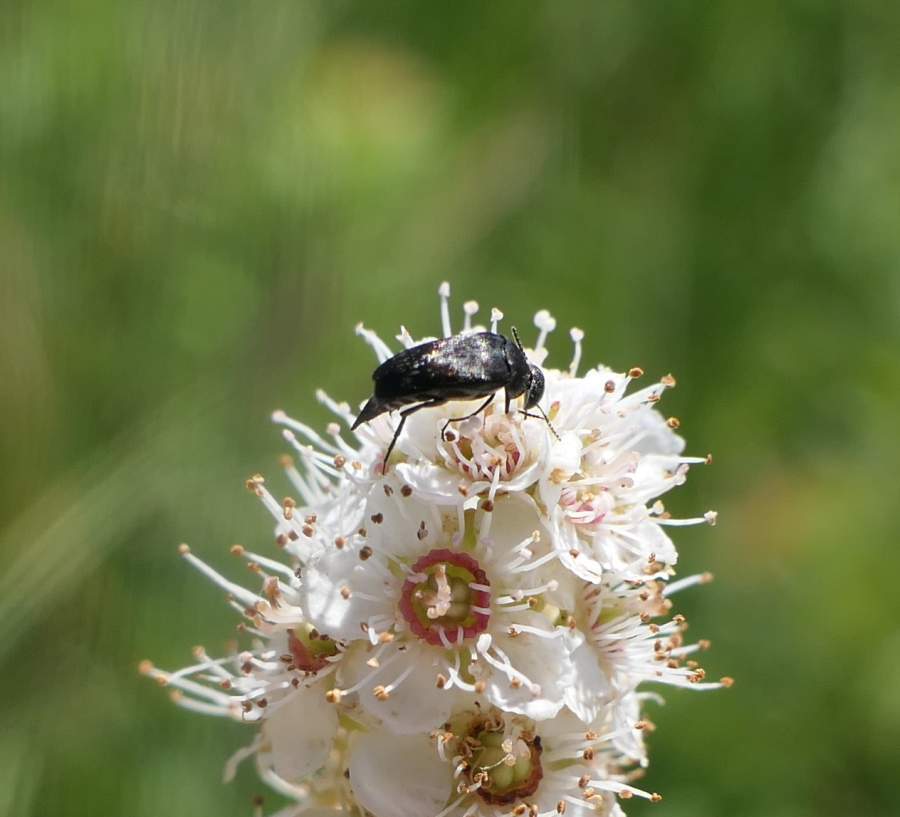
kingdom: Animalia
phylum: Arthropoda
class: Insecta
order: Coleoptera
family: Mordellidae
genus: Mordella
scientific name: Mordella marginata
